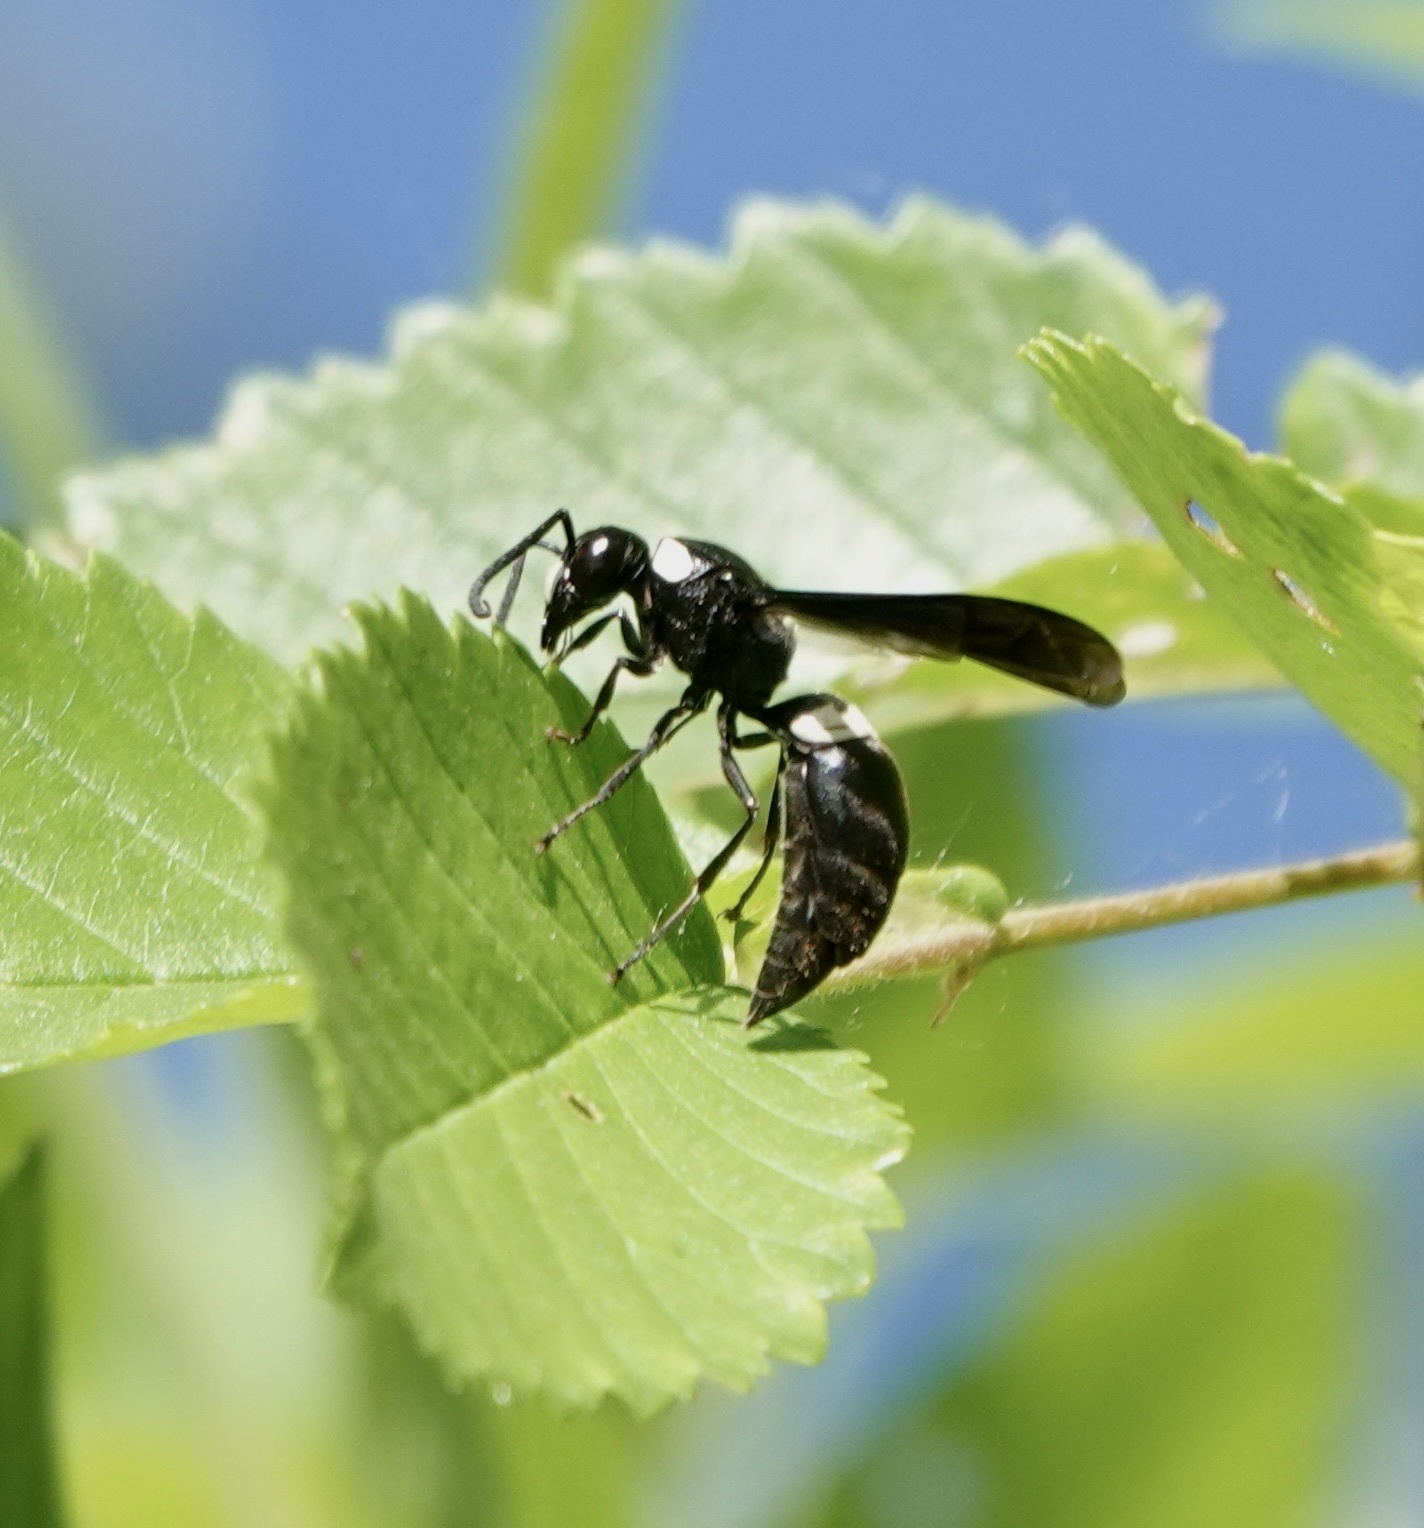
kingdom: Animalia
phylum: Arthropoda
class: Insecta
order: Hymenoptera
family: Eumenidae
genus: Monobia
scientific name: Monobia quadridens
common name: Four-toothed mason wasp
